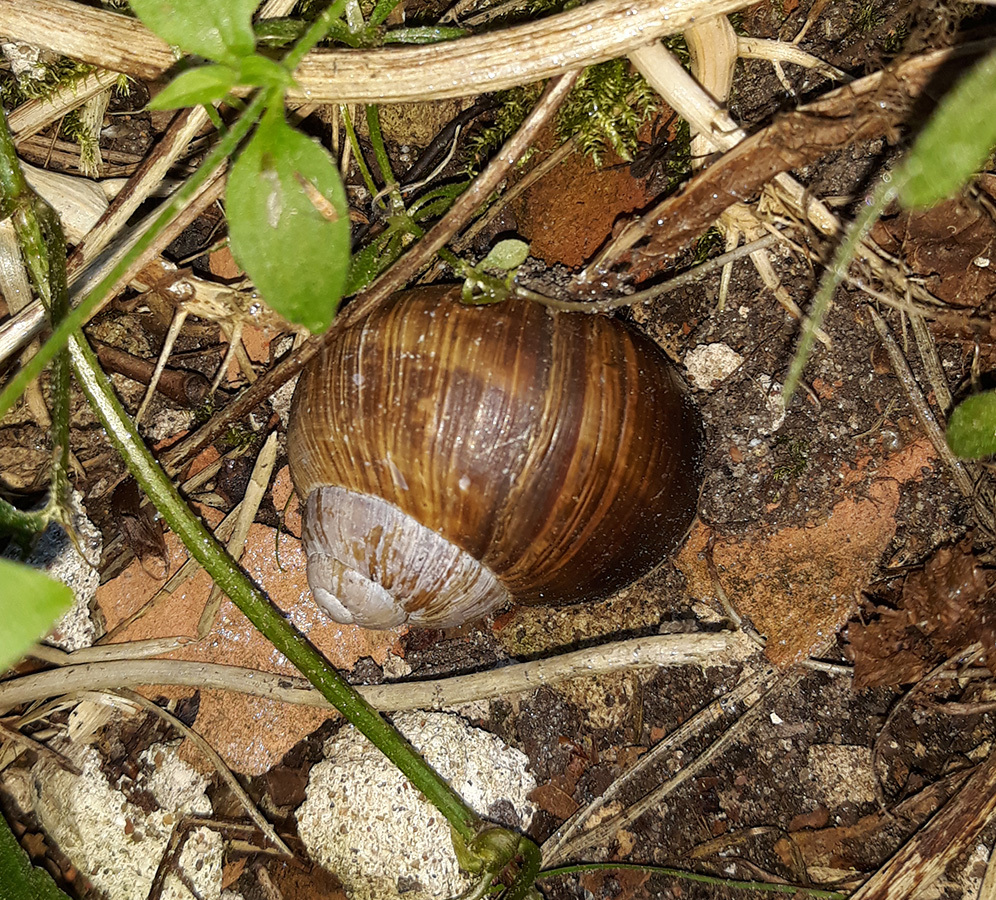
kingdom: Animalia
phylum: Mollusca
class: Gastropoda
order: Stylommatophora
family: Helicidae
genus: Helix
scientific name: Helix pomatia
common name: Roman snail
